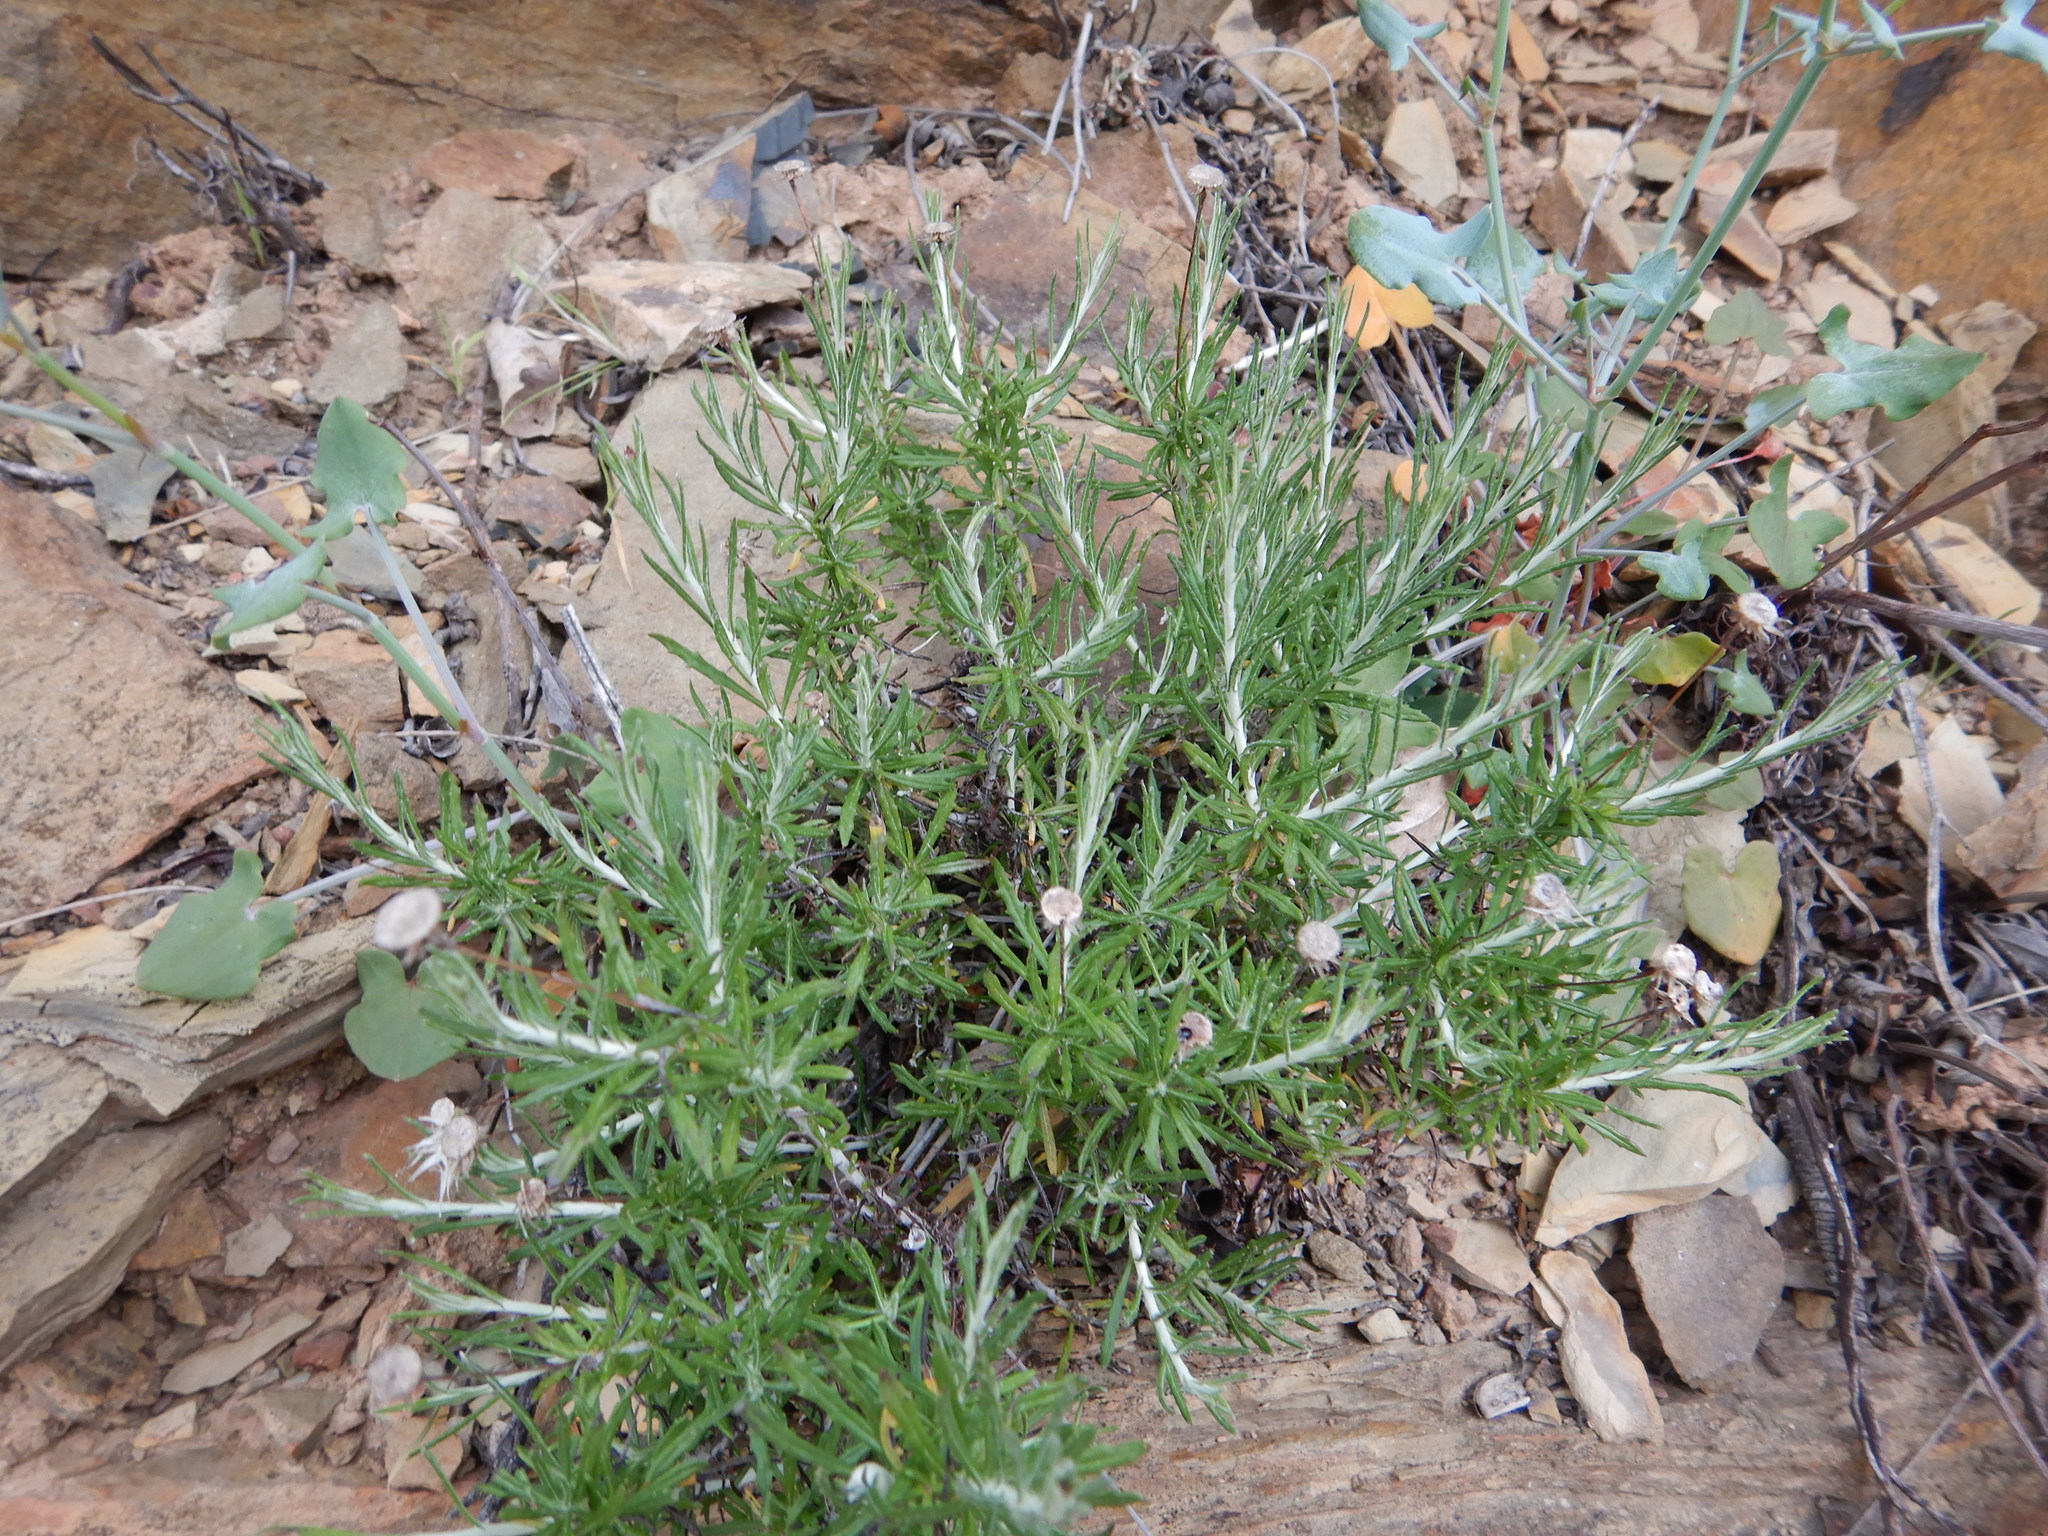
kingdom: Plantae
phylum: Tracheophyta
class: Magnoliopsida
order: Asterales
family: Asteraceae
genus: Phagnalon
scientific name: Phagnalon saxatile
